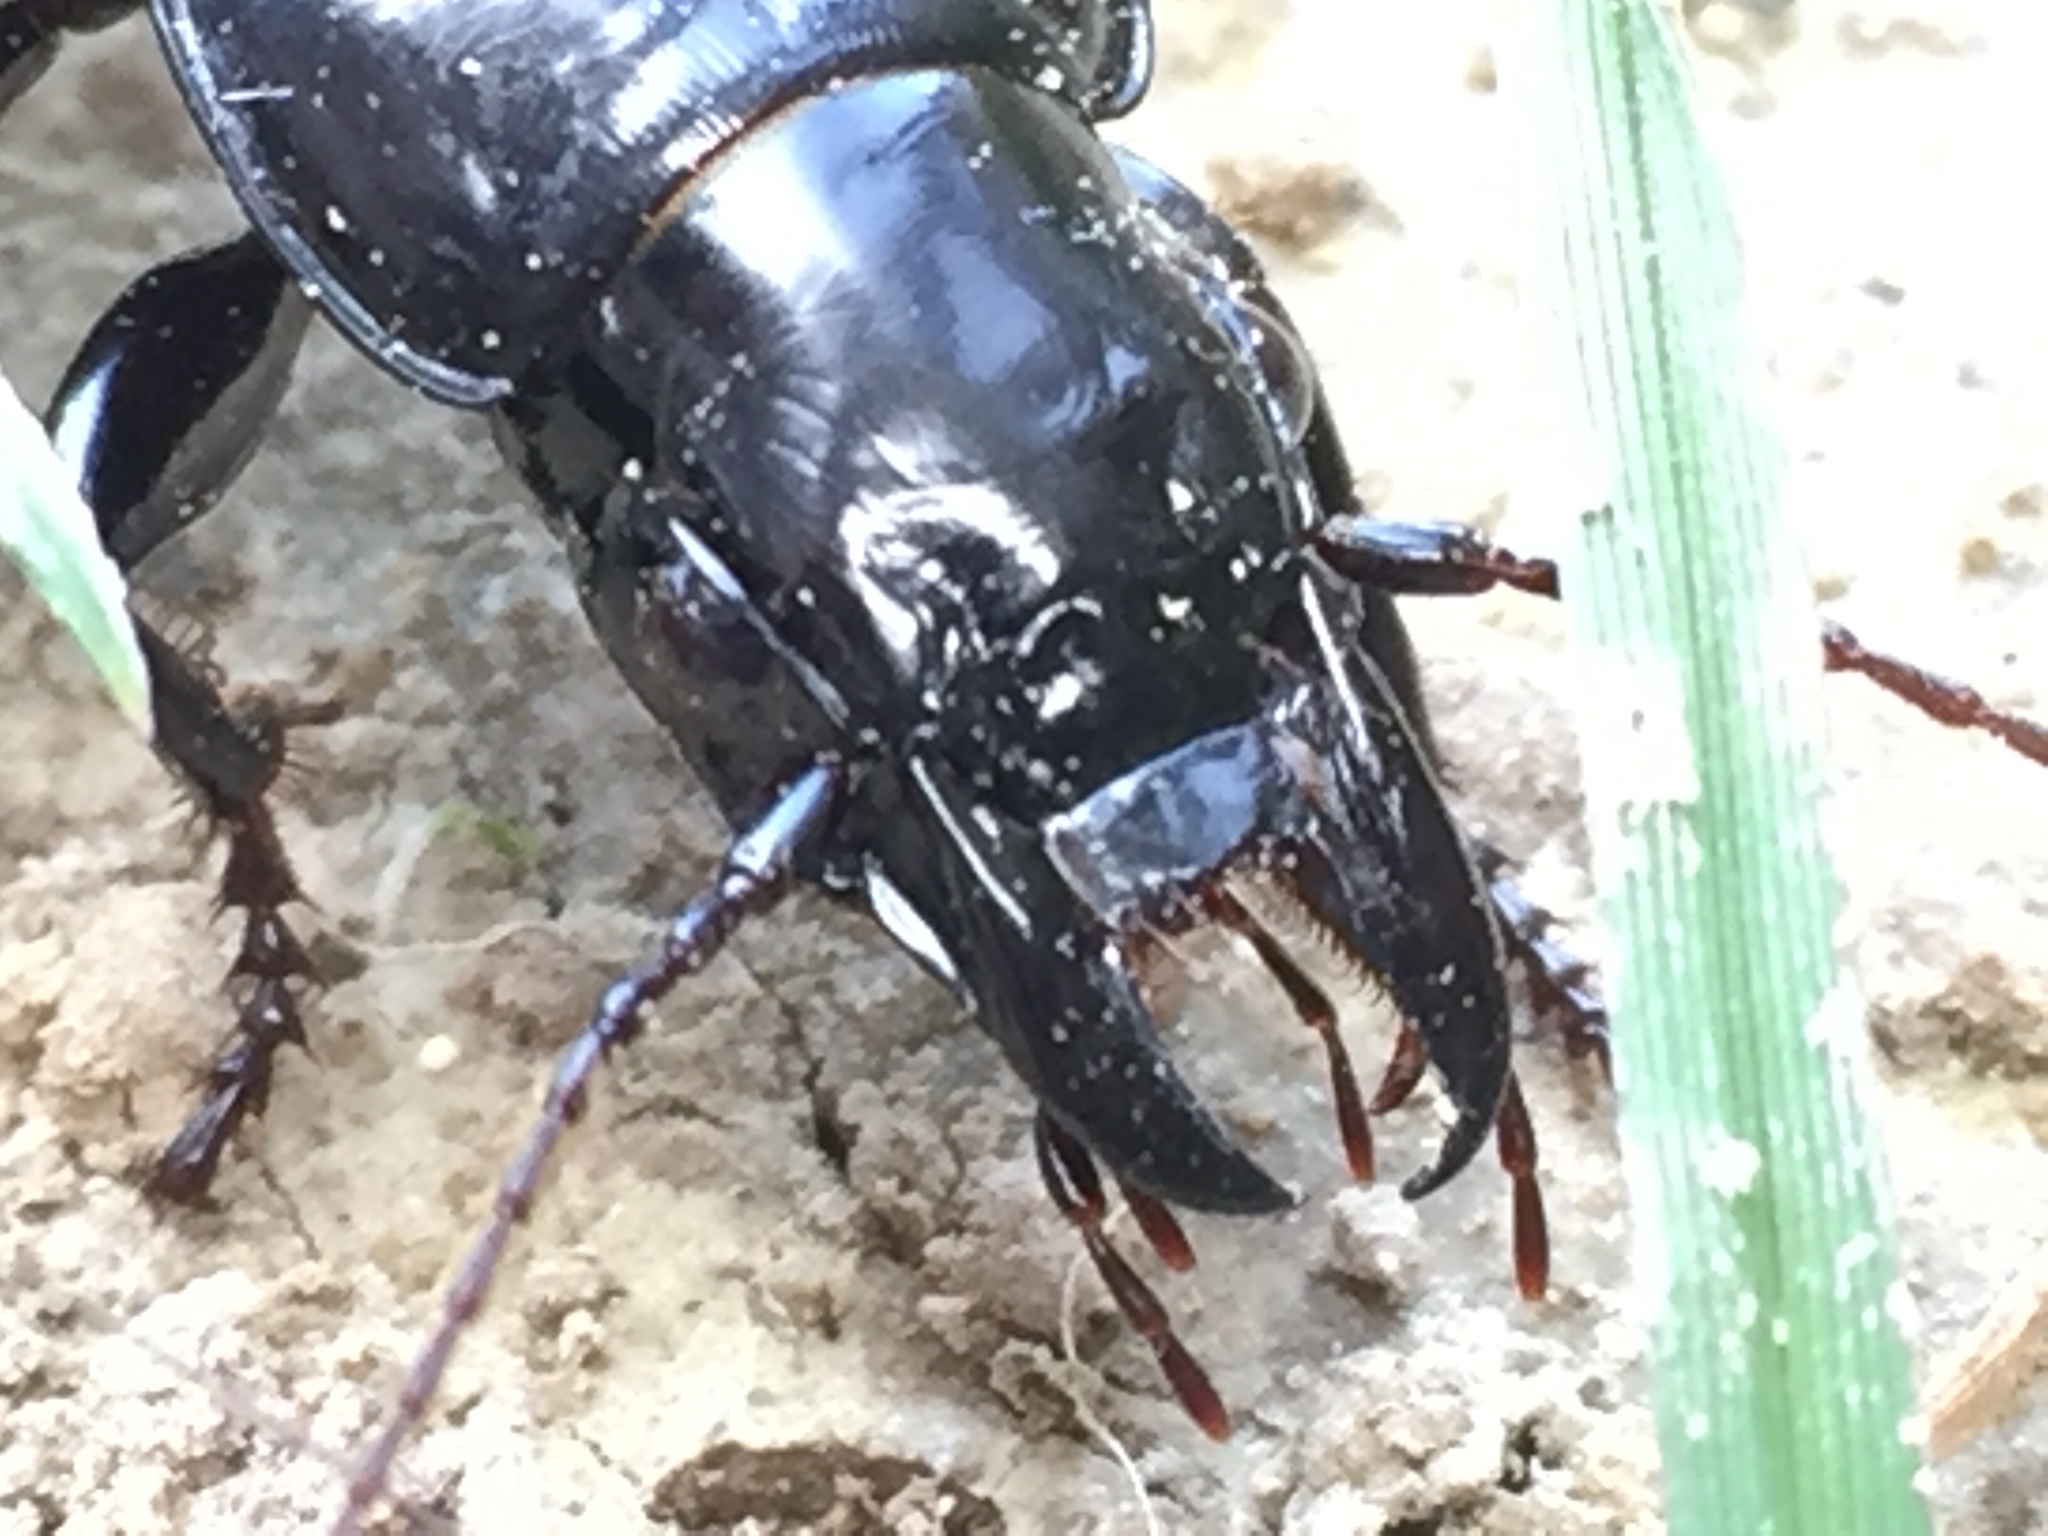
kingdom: Animalia
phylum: Arthropoda
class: Insecta
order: Coleoptera
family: Carabidae
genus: Plocamostethus
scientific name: Plocamostethus planiusculus
